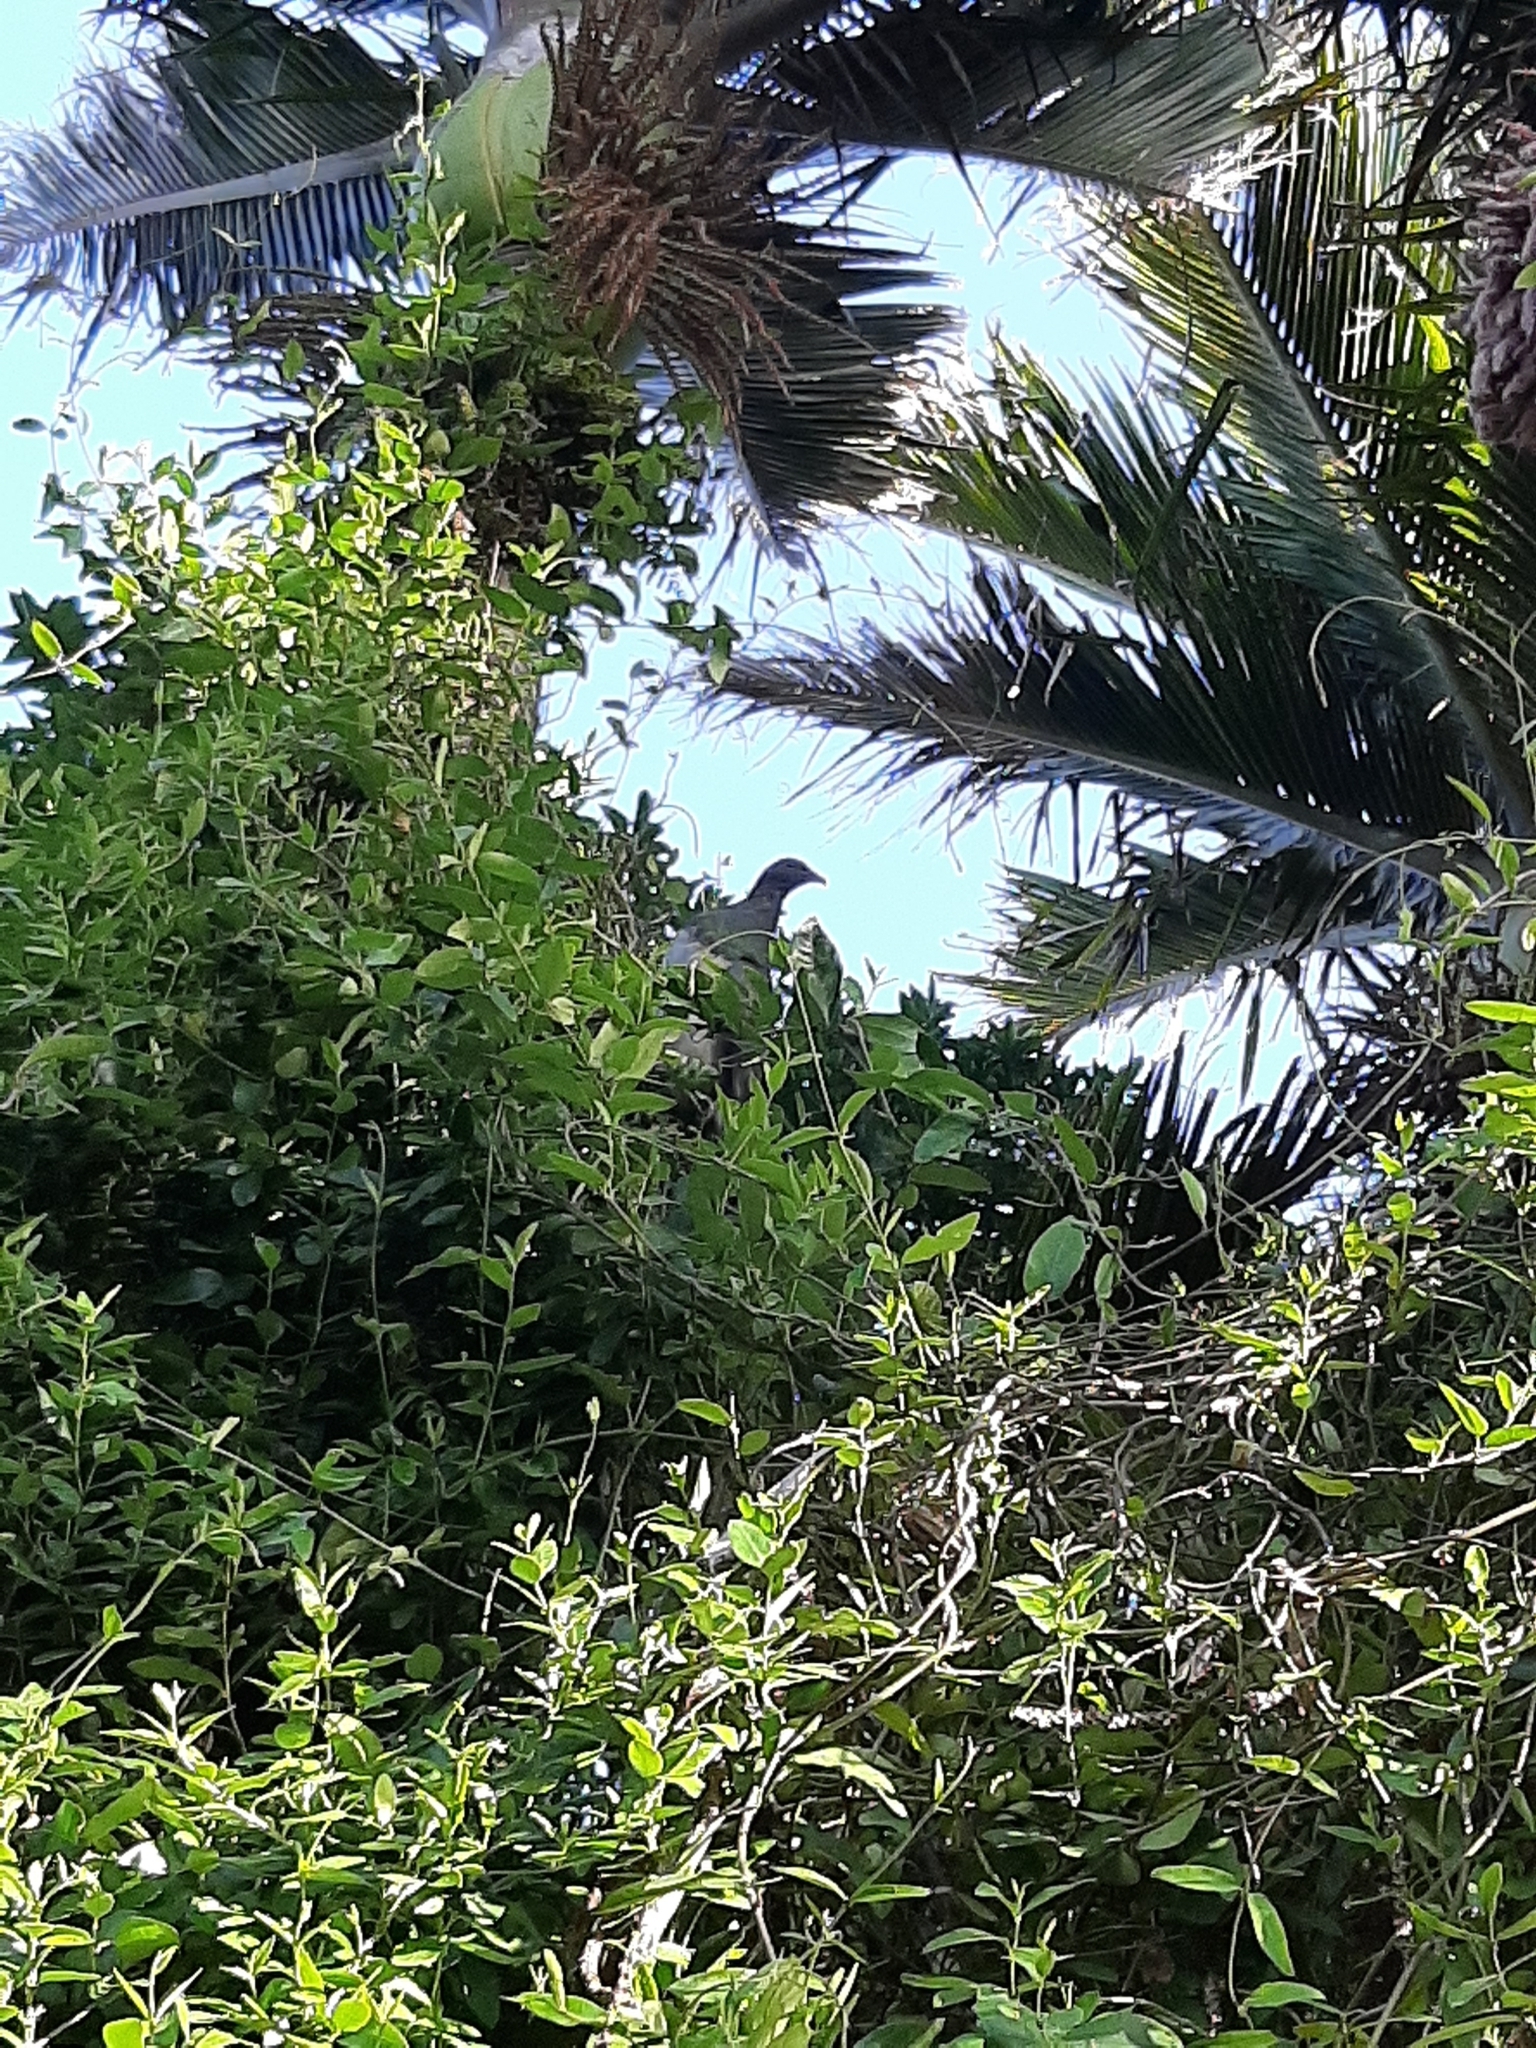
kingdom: Animalia
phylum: Chordata
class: Aves
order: Columbiformes
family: Columbidae
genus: Hemiphaga
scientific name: Hemiphaga novaeseelandiae
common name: New zealand pigeon
